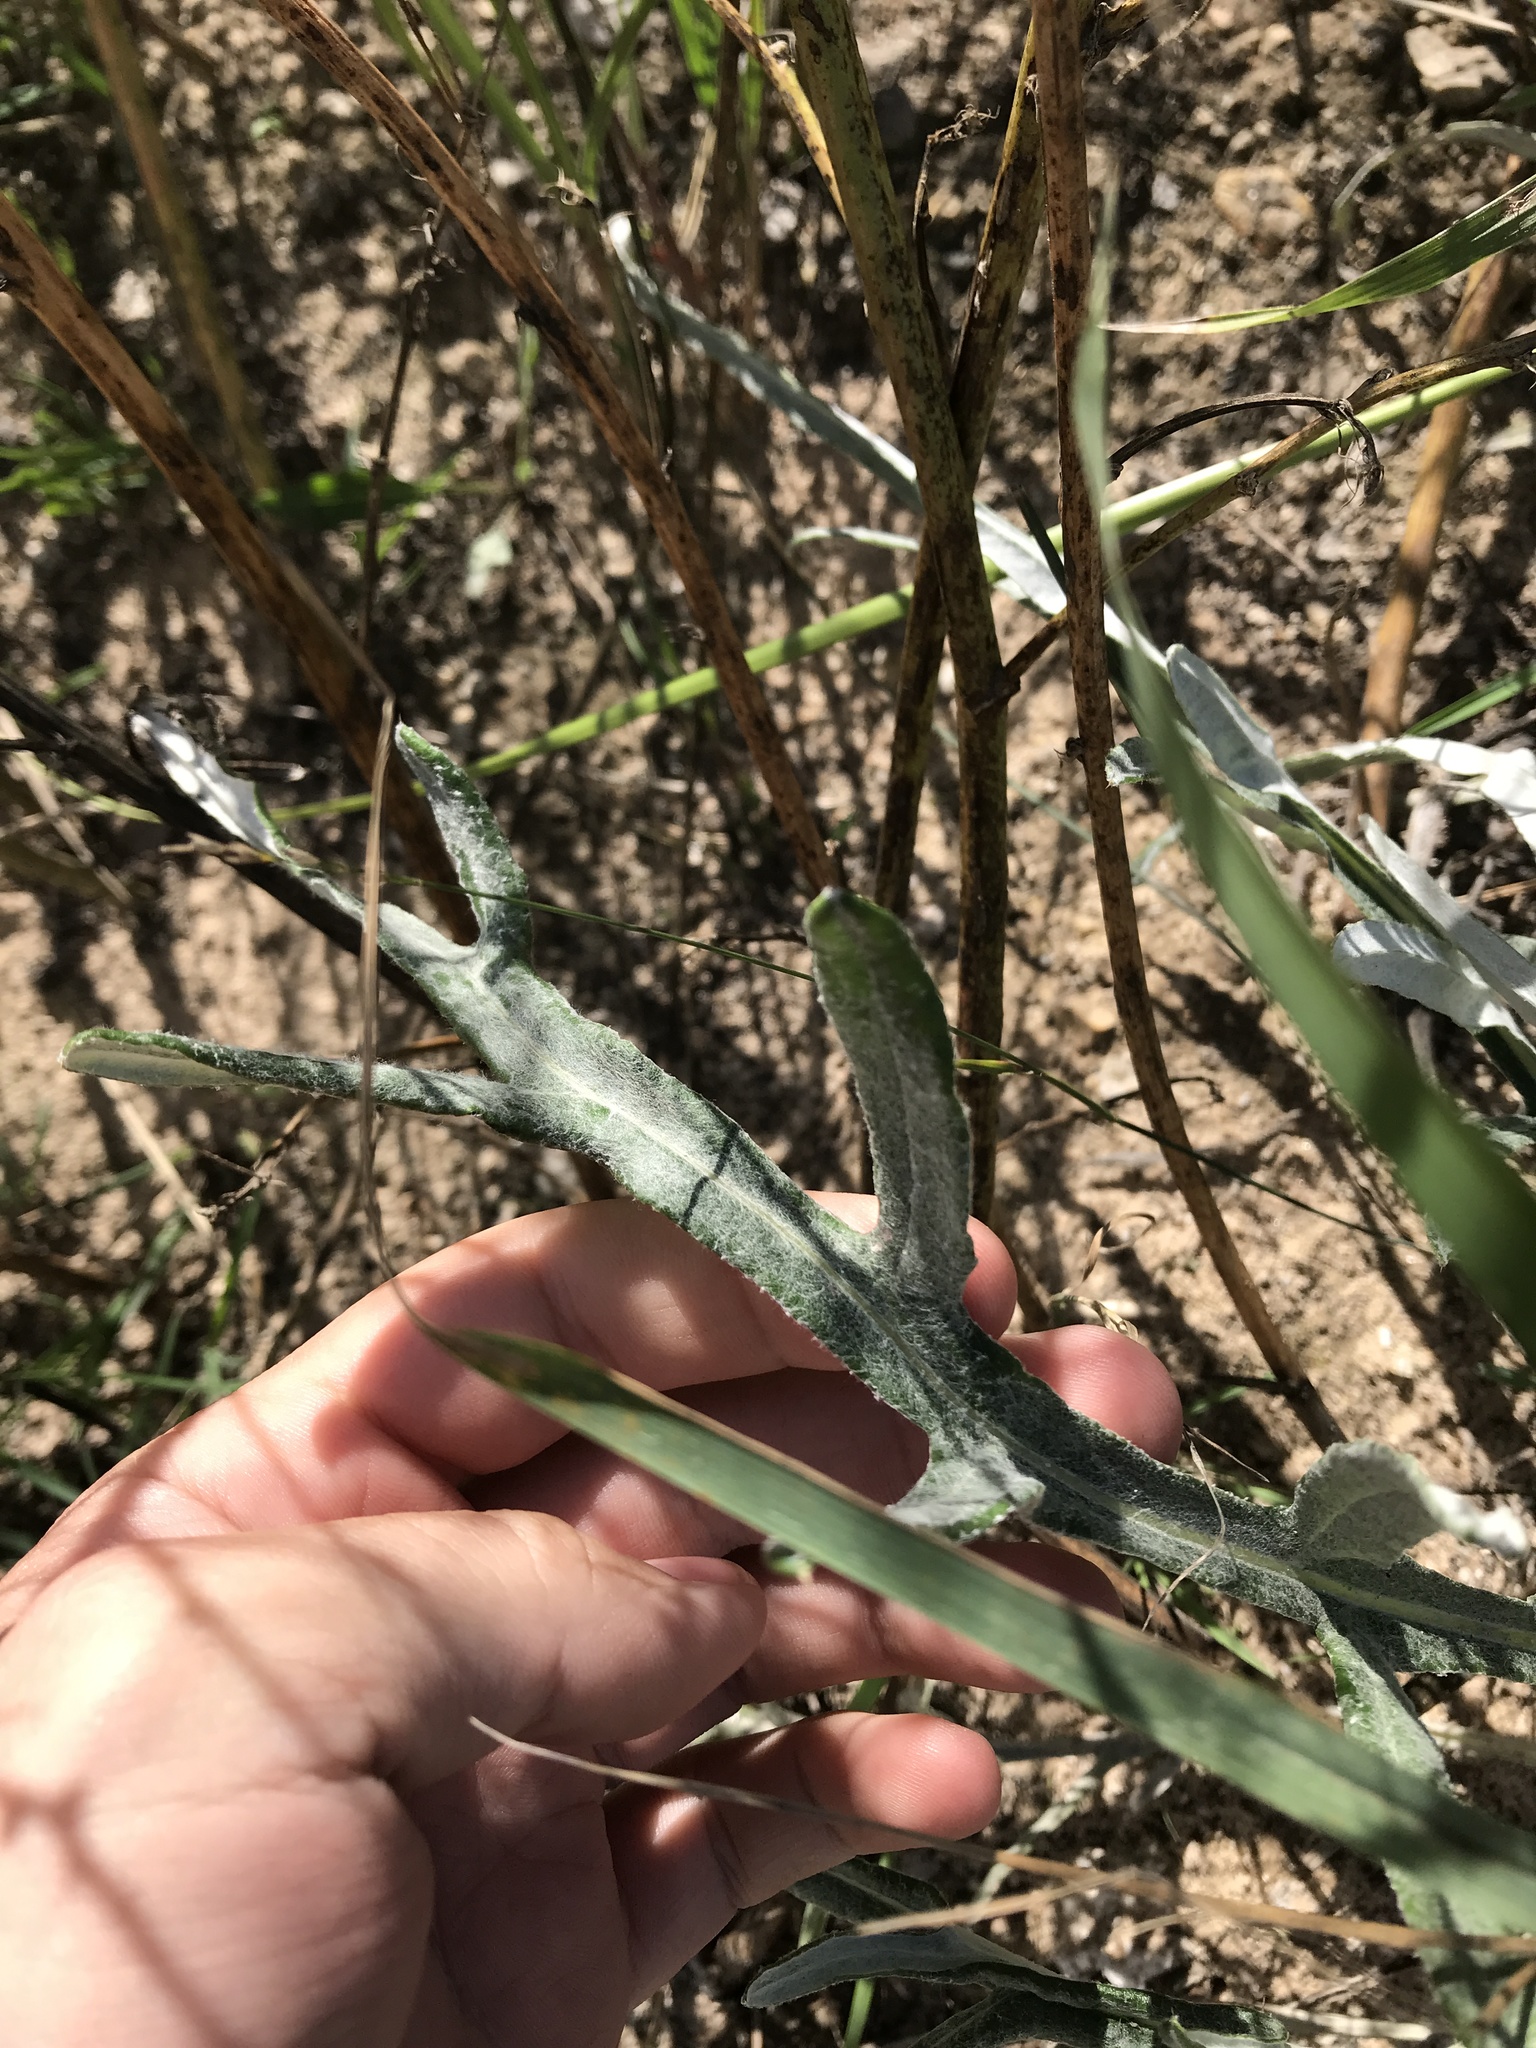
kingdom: Plantae
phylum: Tracheophyta
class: Magnoliopsida
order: Asterales
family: Asteraceae
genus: Cirsium
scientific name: Cirsium pitcheri
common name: Dune thistle
